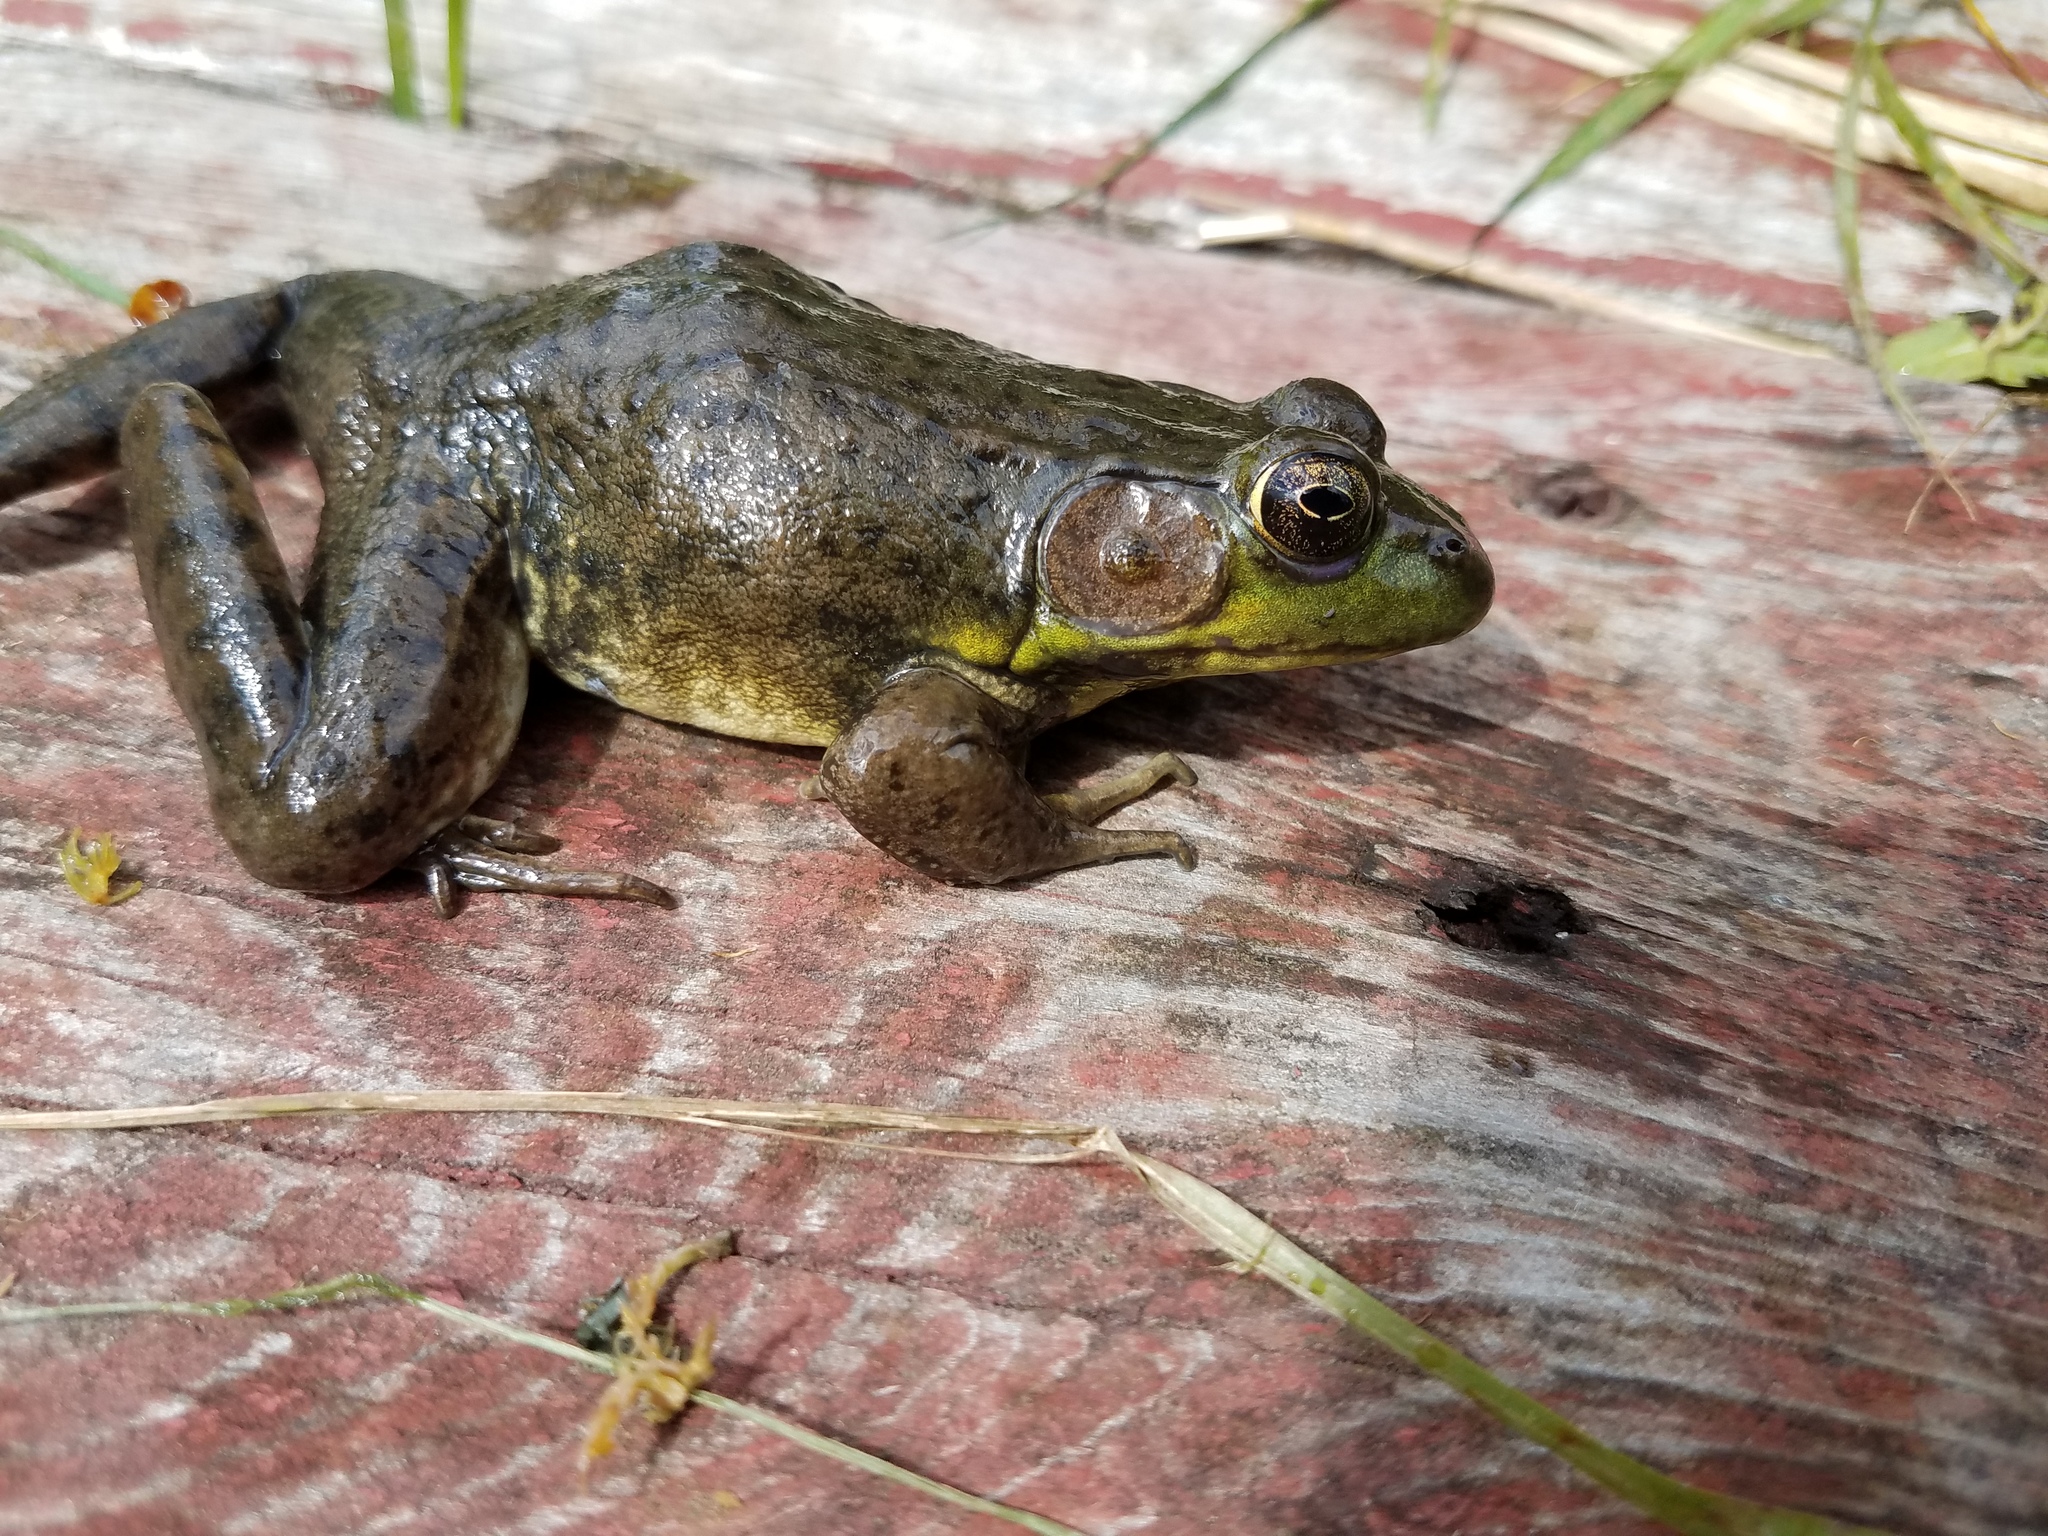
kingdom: Animalia
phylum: Chordata
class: Amphibia
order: Anura
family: Ranidae
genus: Lithobates
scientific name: Lithobates clamitans
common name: Green frog
